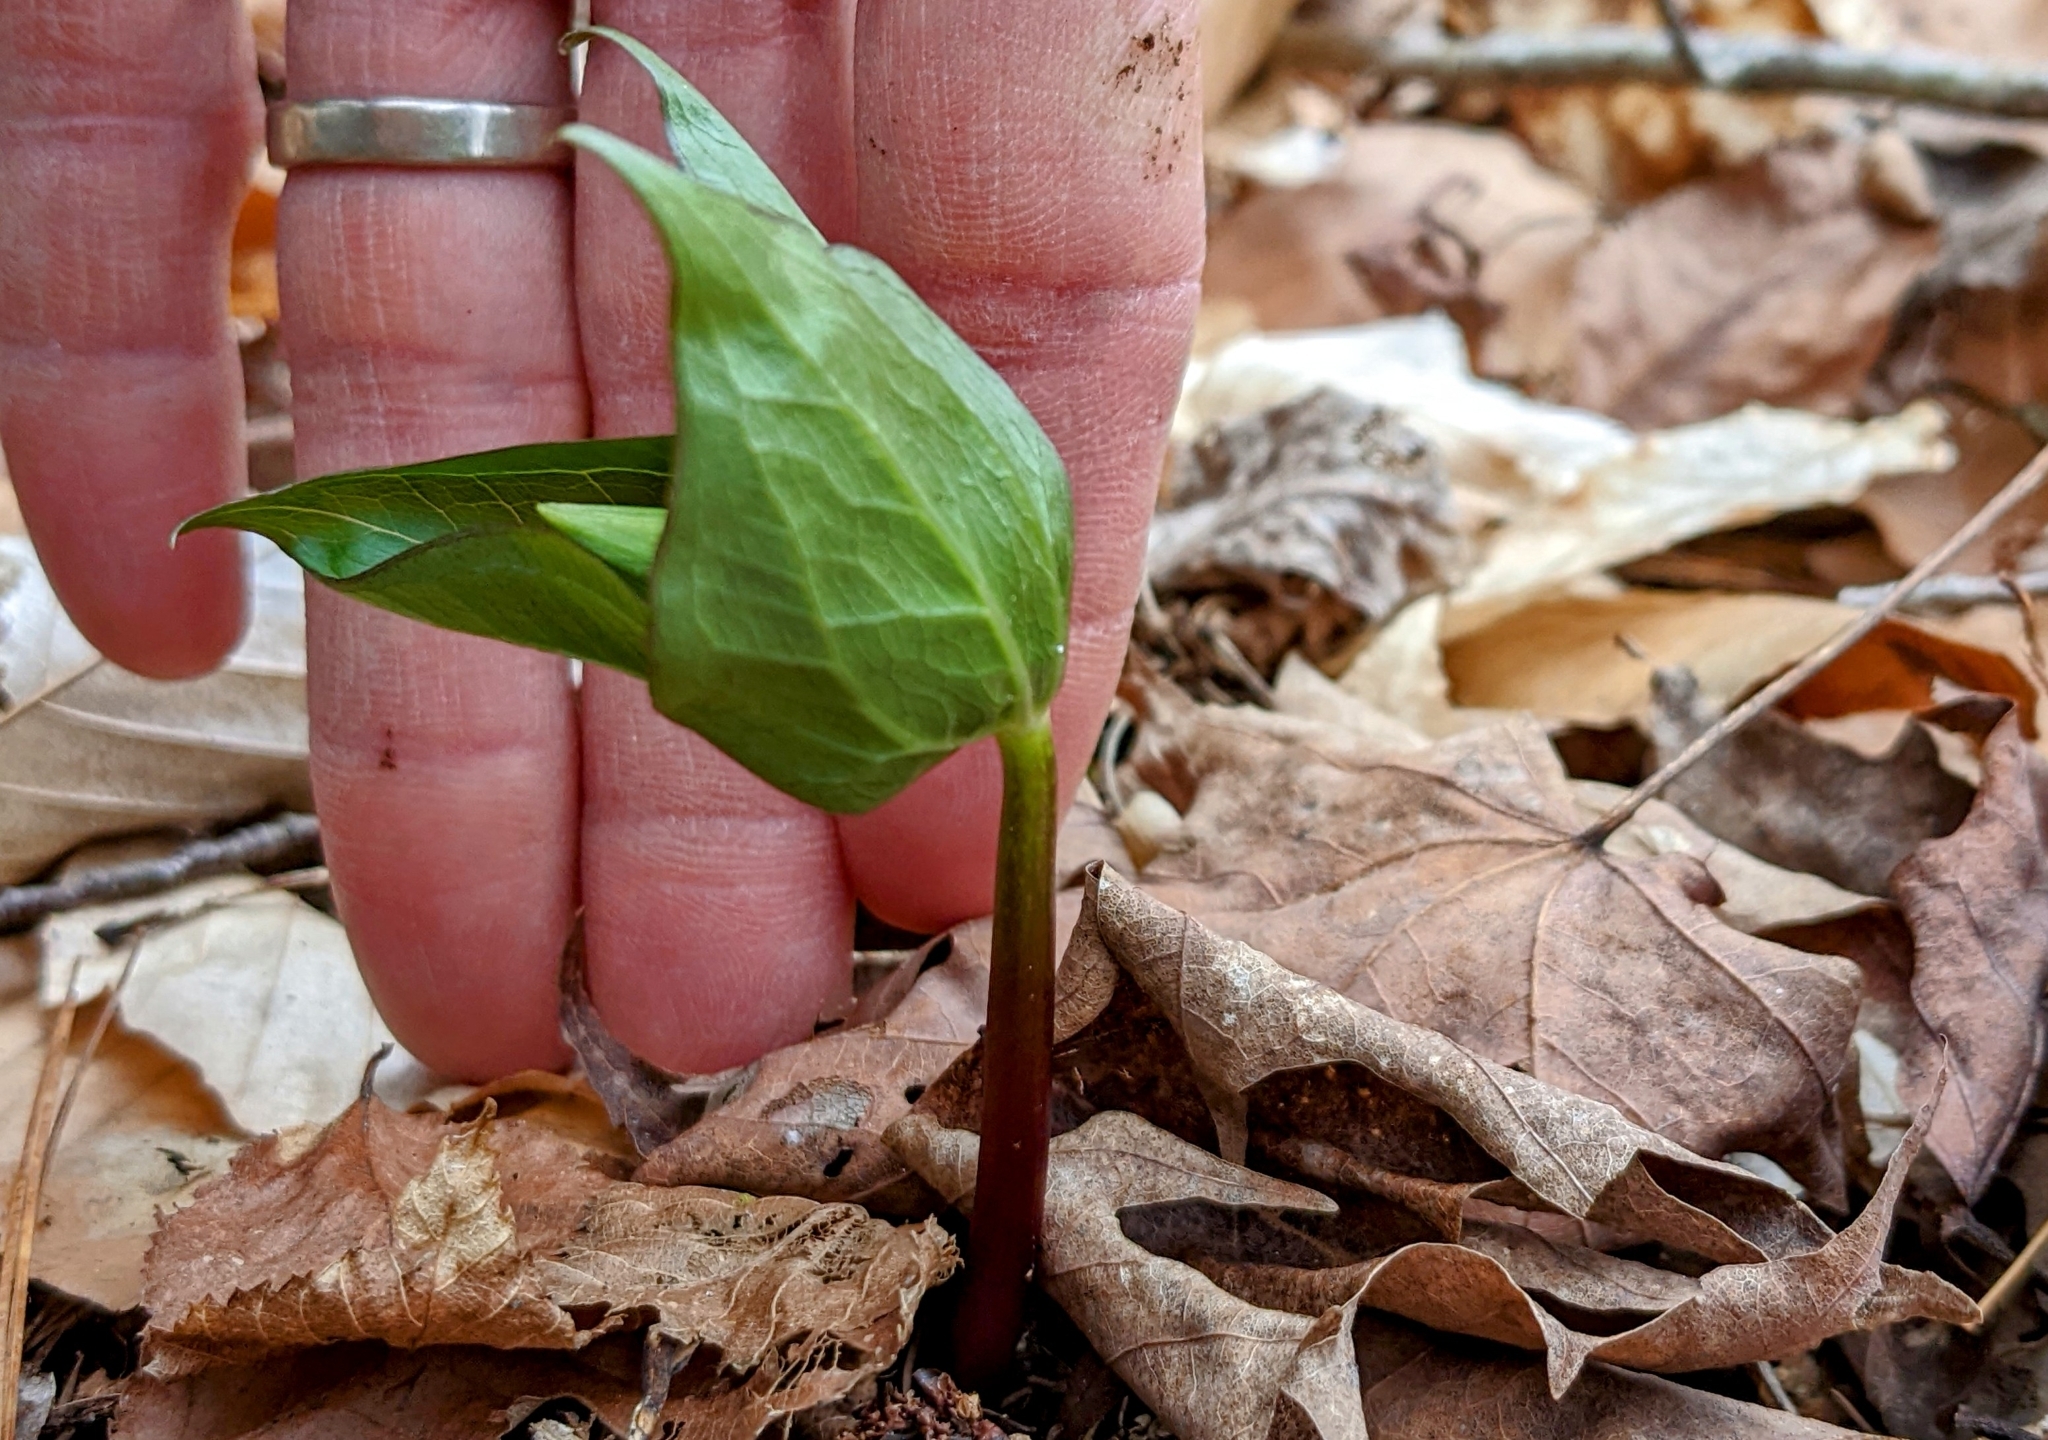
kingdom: Plantae
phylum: Tracheophyta
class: Liliopsida
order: Liliales
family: Melanthiaceae
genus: Trillium
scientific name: Trillium erectum
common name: Purple trillium
